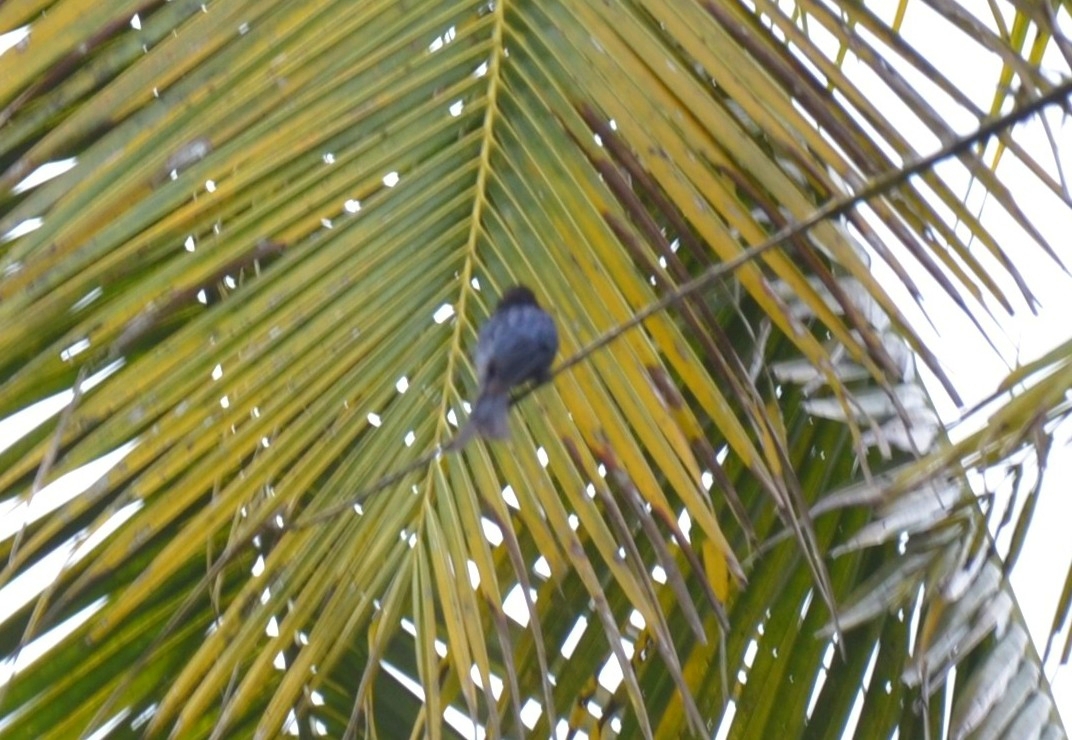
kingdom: Animalia
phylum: Chordata
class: Aves
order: Passeriformes
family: Dicruridae
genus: Dicrurus
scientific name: Dicrurus aeneus
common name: Bronzed drongo
